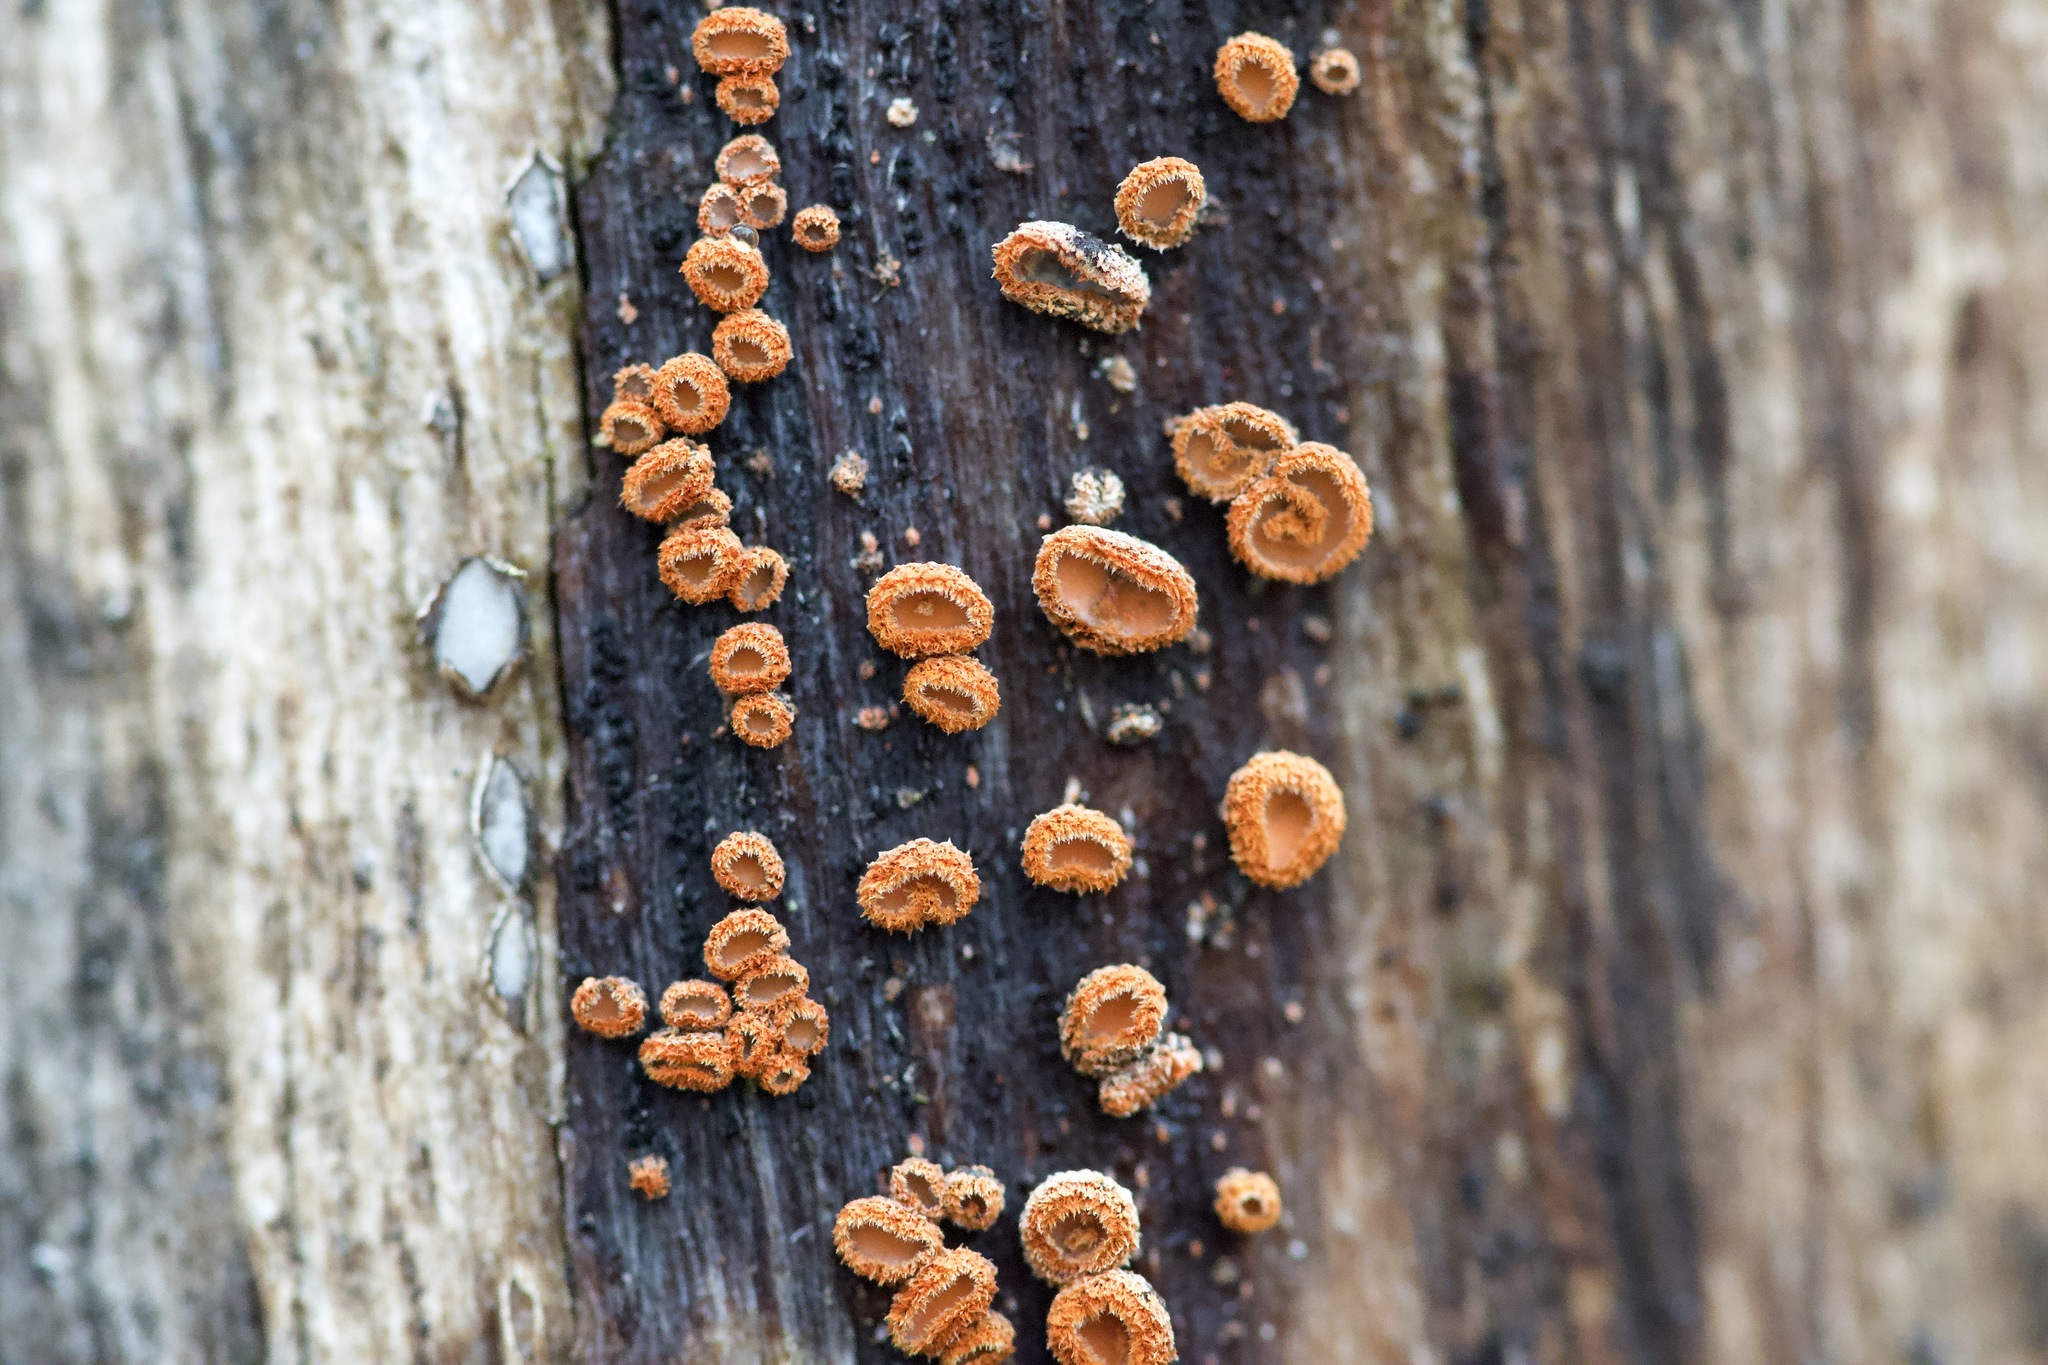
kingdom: Fungi
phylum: Ascomycota
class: Leotiomycetes
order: Helotiales
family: Lachnaceae
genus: Perrotia
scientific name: Perrotia flammea
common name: Wood spark
